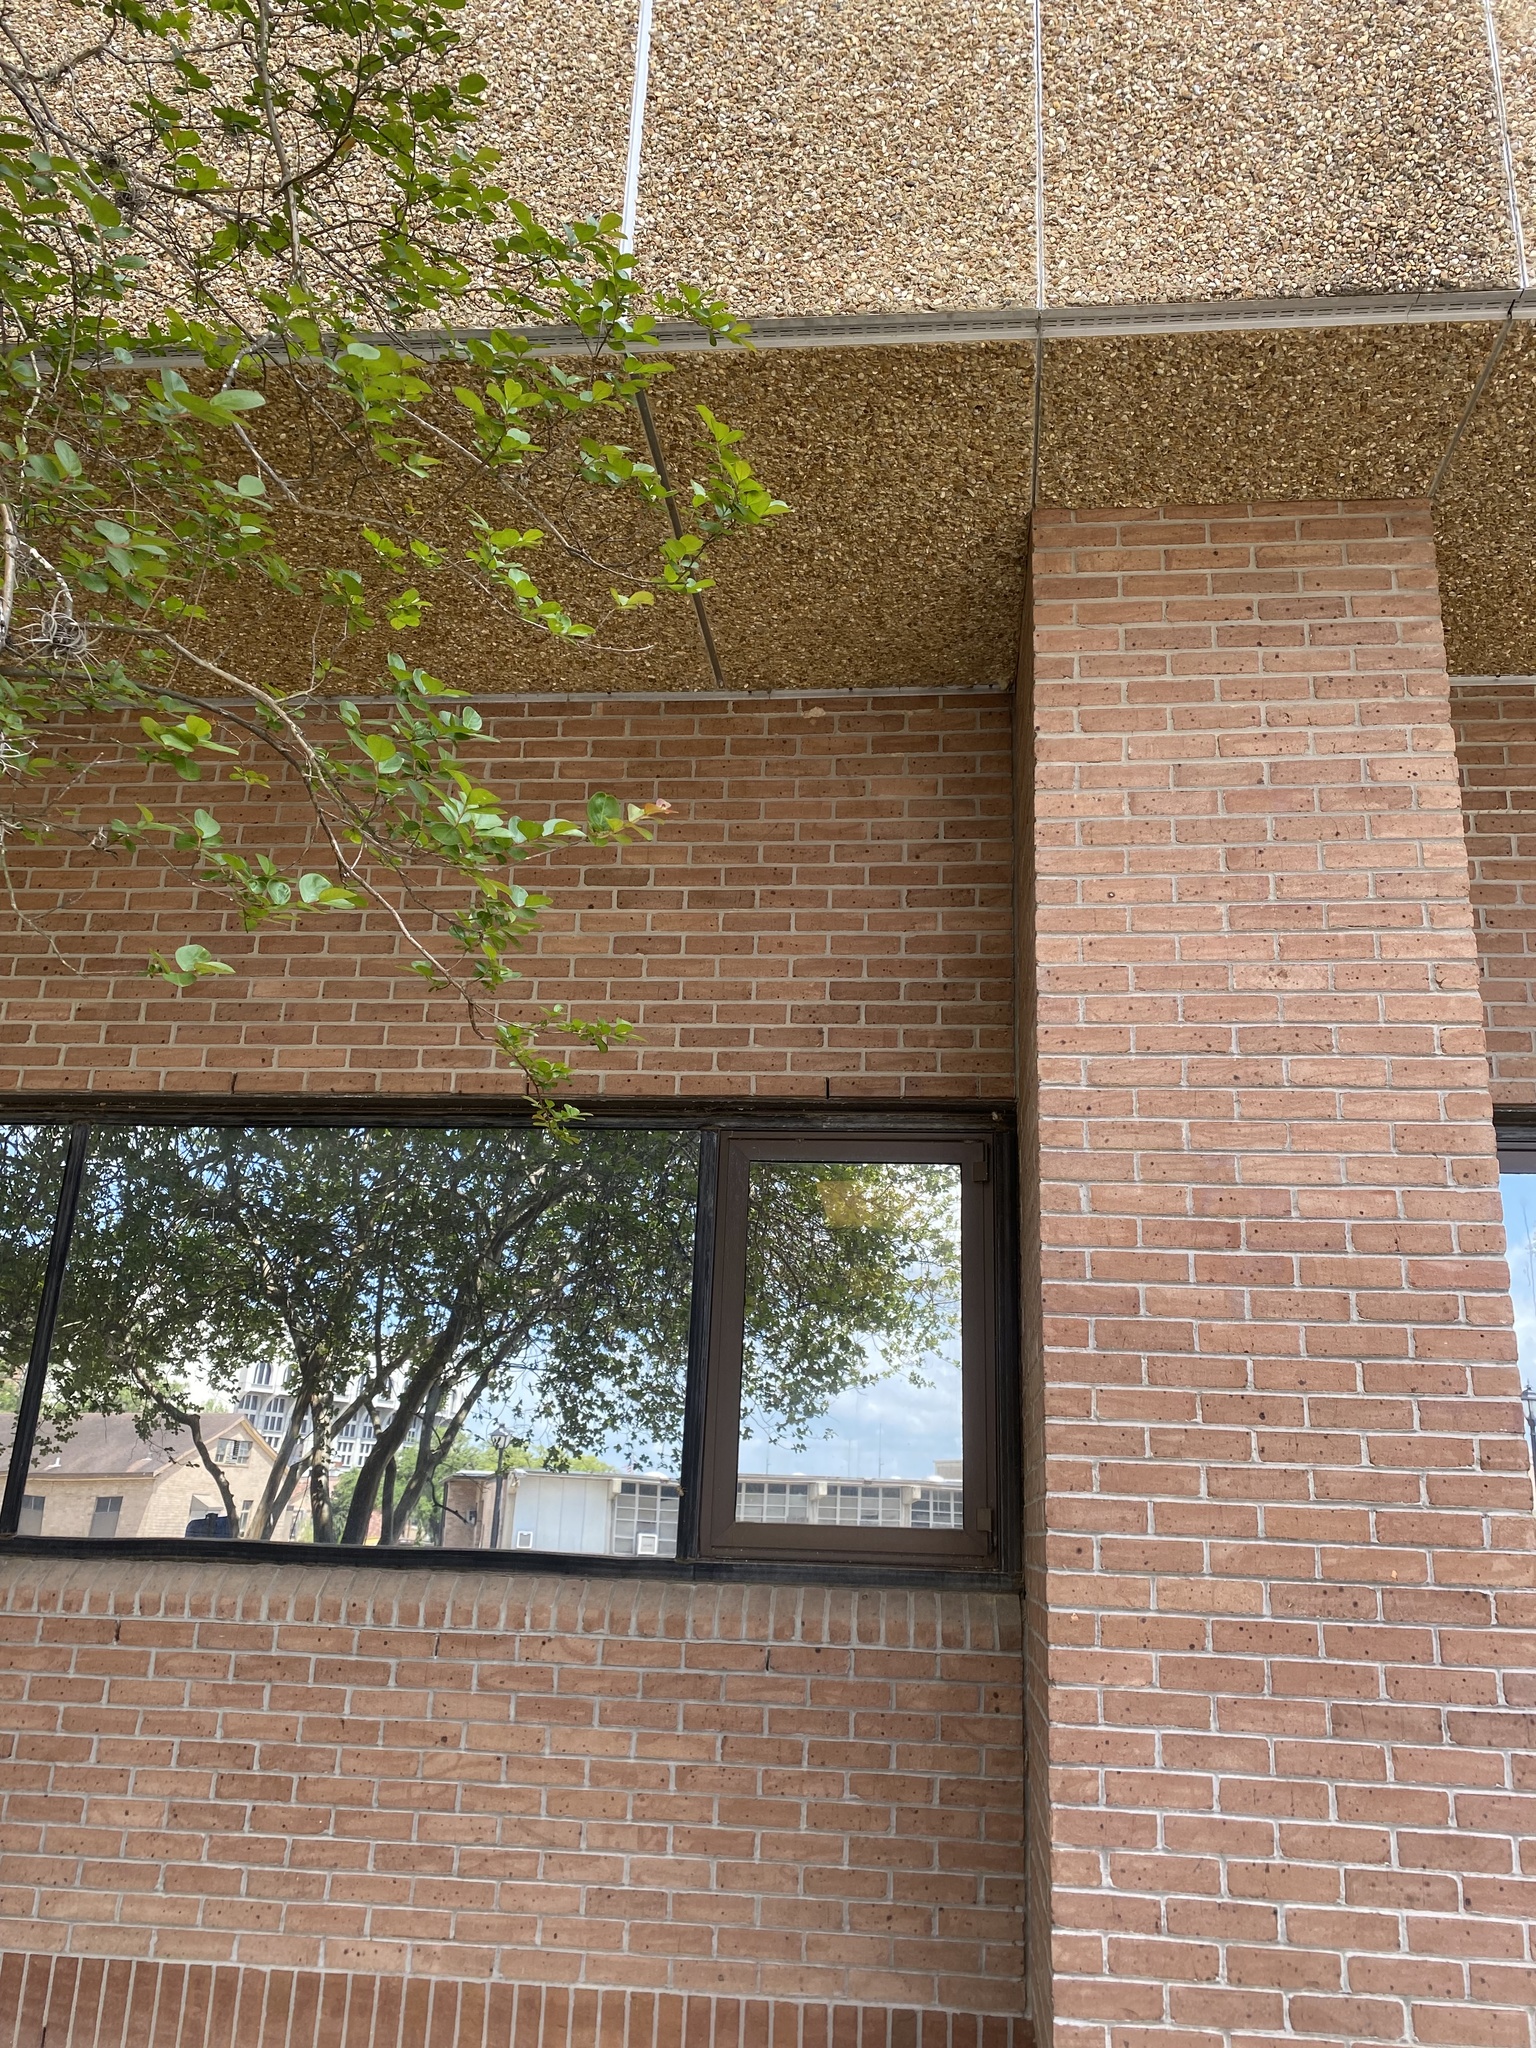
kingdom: Animalia
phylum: Chordata
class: Aves
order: Columbiformes
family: Columbidae
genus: Zenaida
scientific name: Zenaida macroura
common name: Mourning dove
